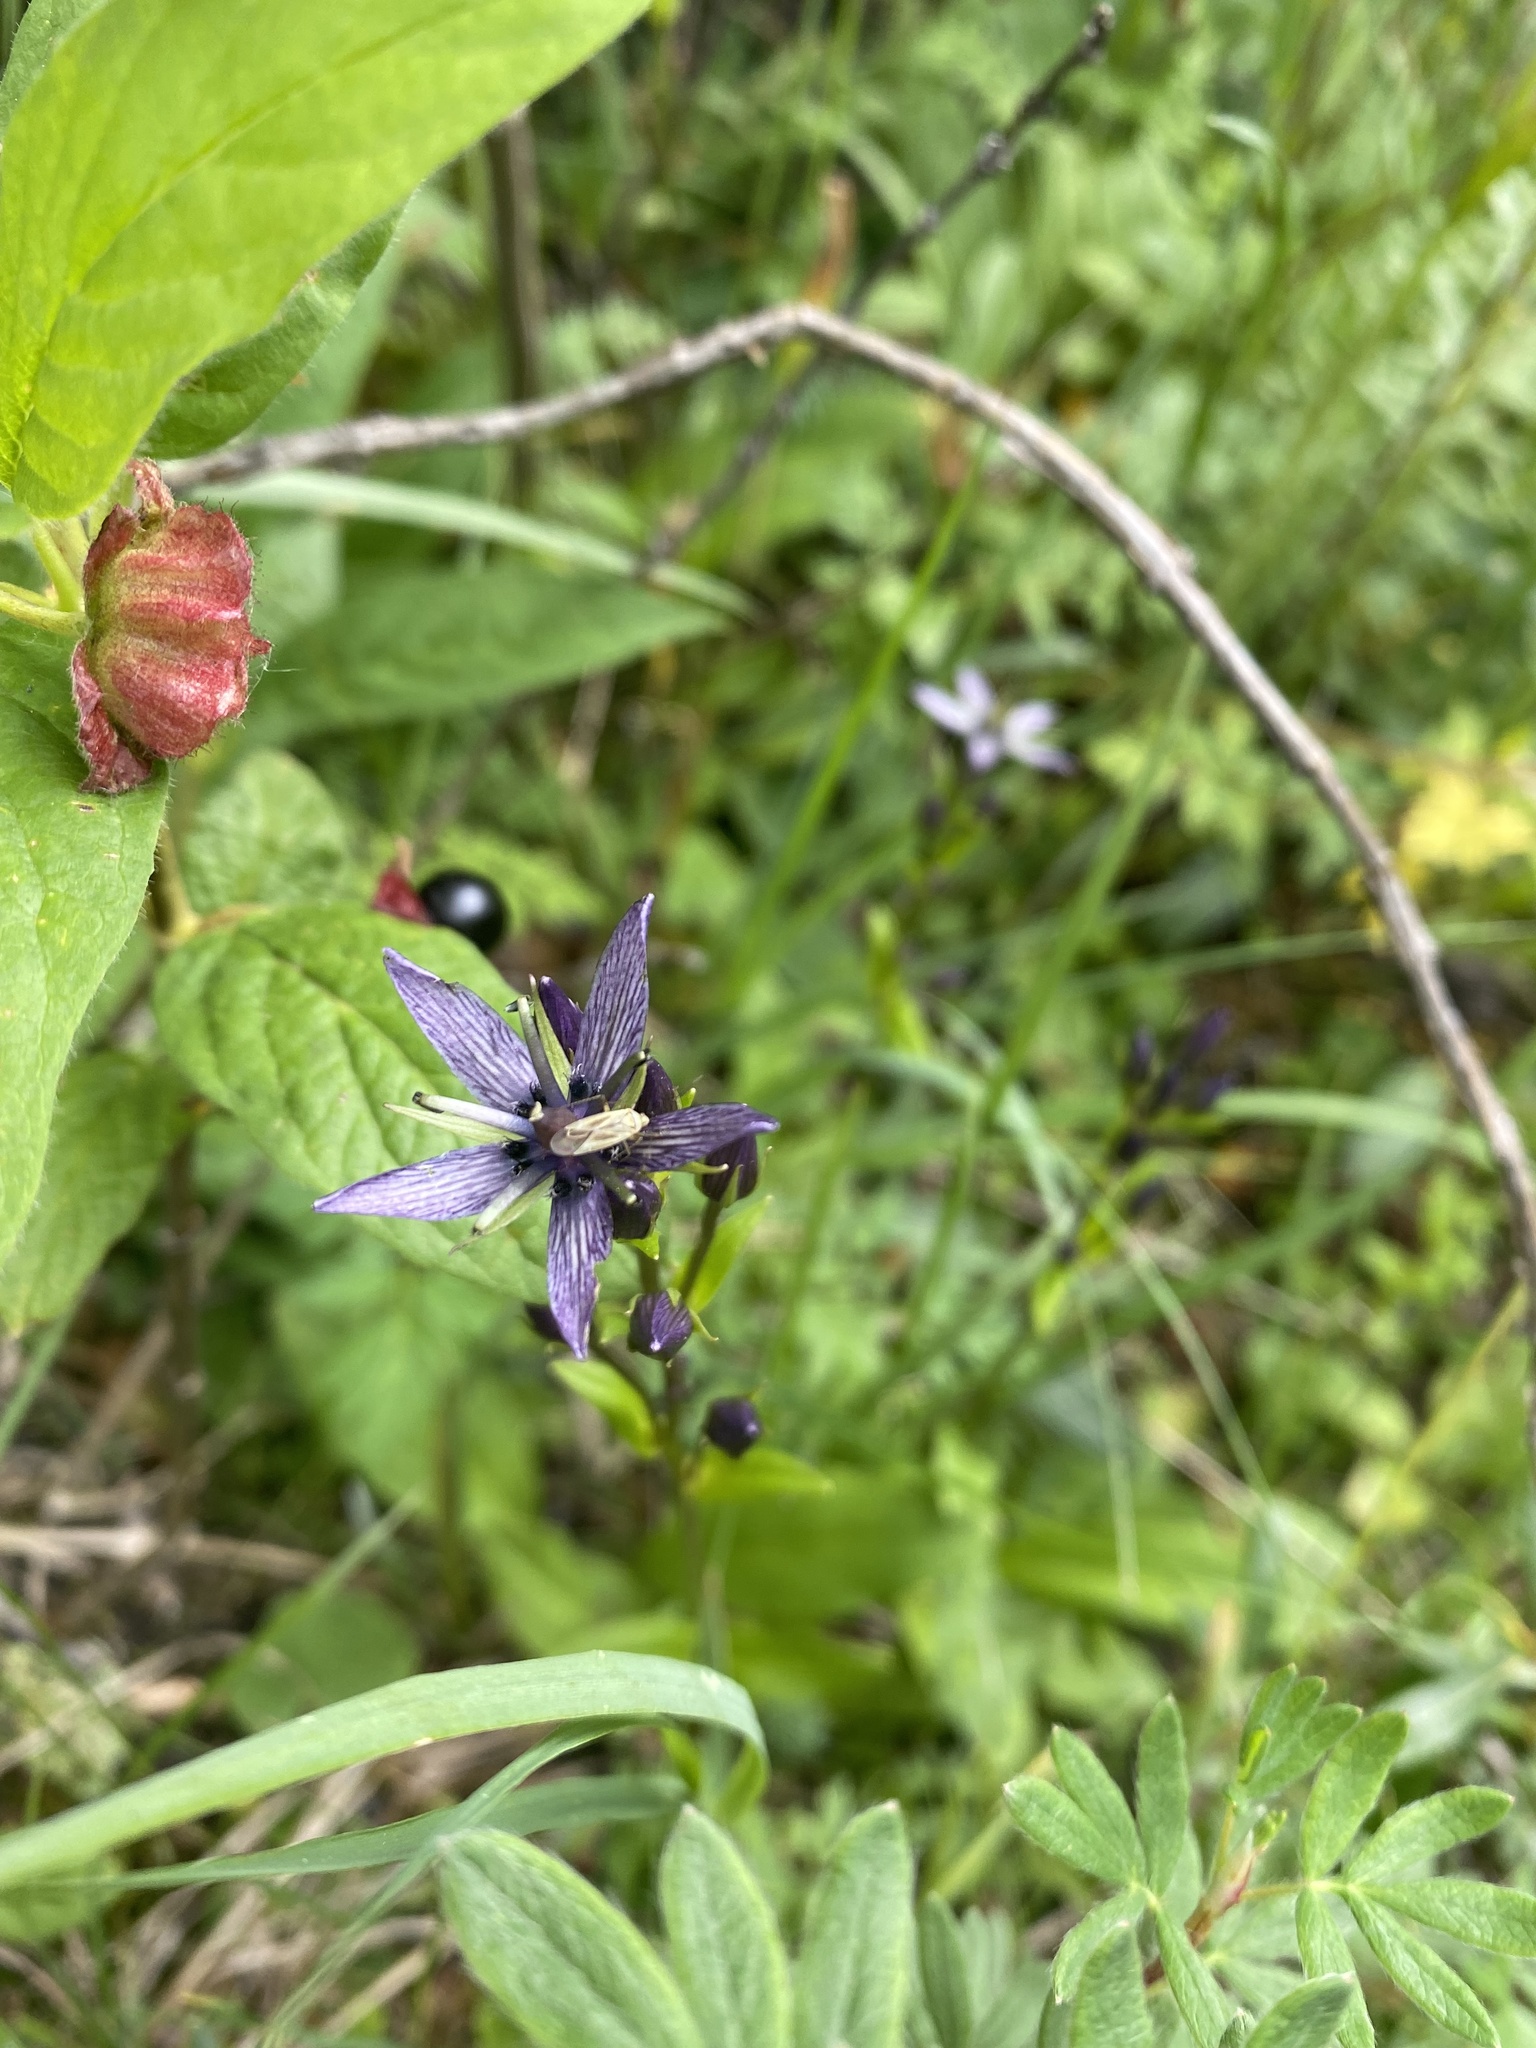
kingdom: Plantae
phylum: Tracheophyta
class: Magnoliopsida
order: Gentianales
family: Gentianaceae
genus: Swertia
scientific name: Swertia perennis
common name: Alpine bog swertia
